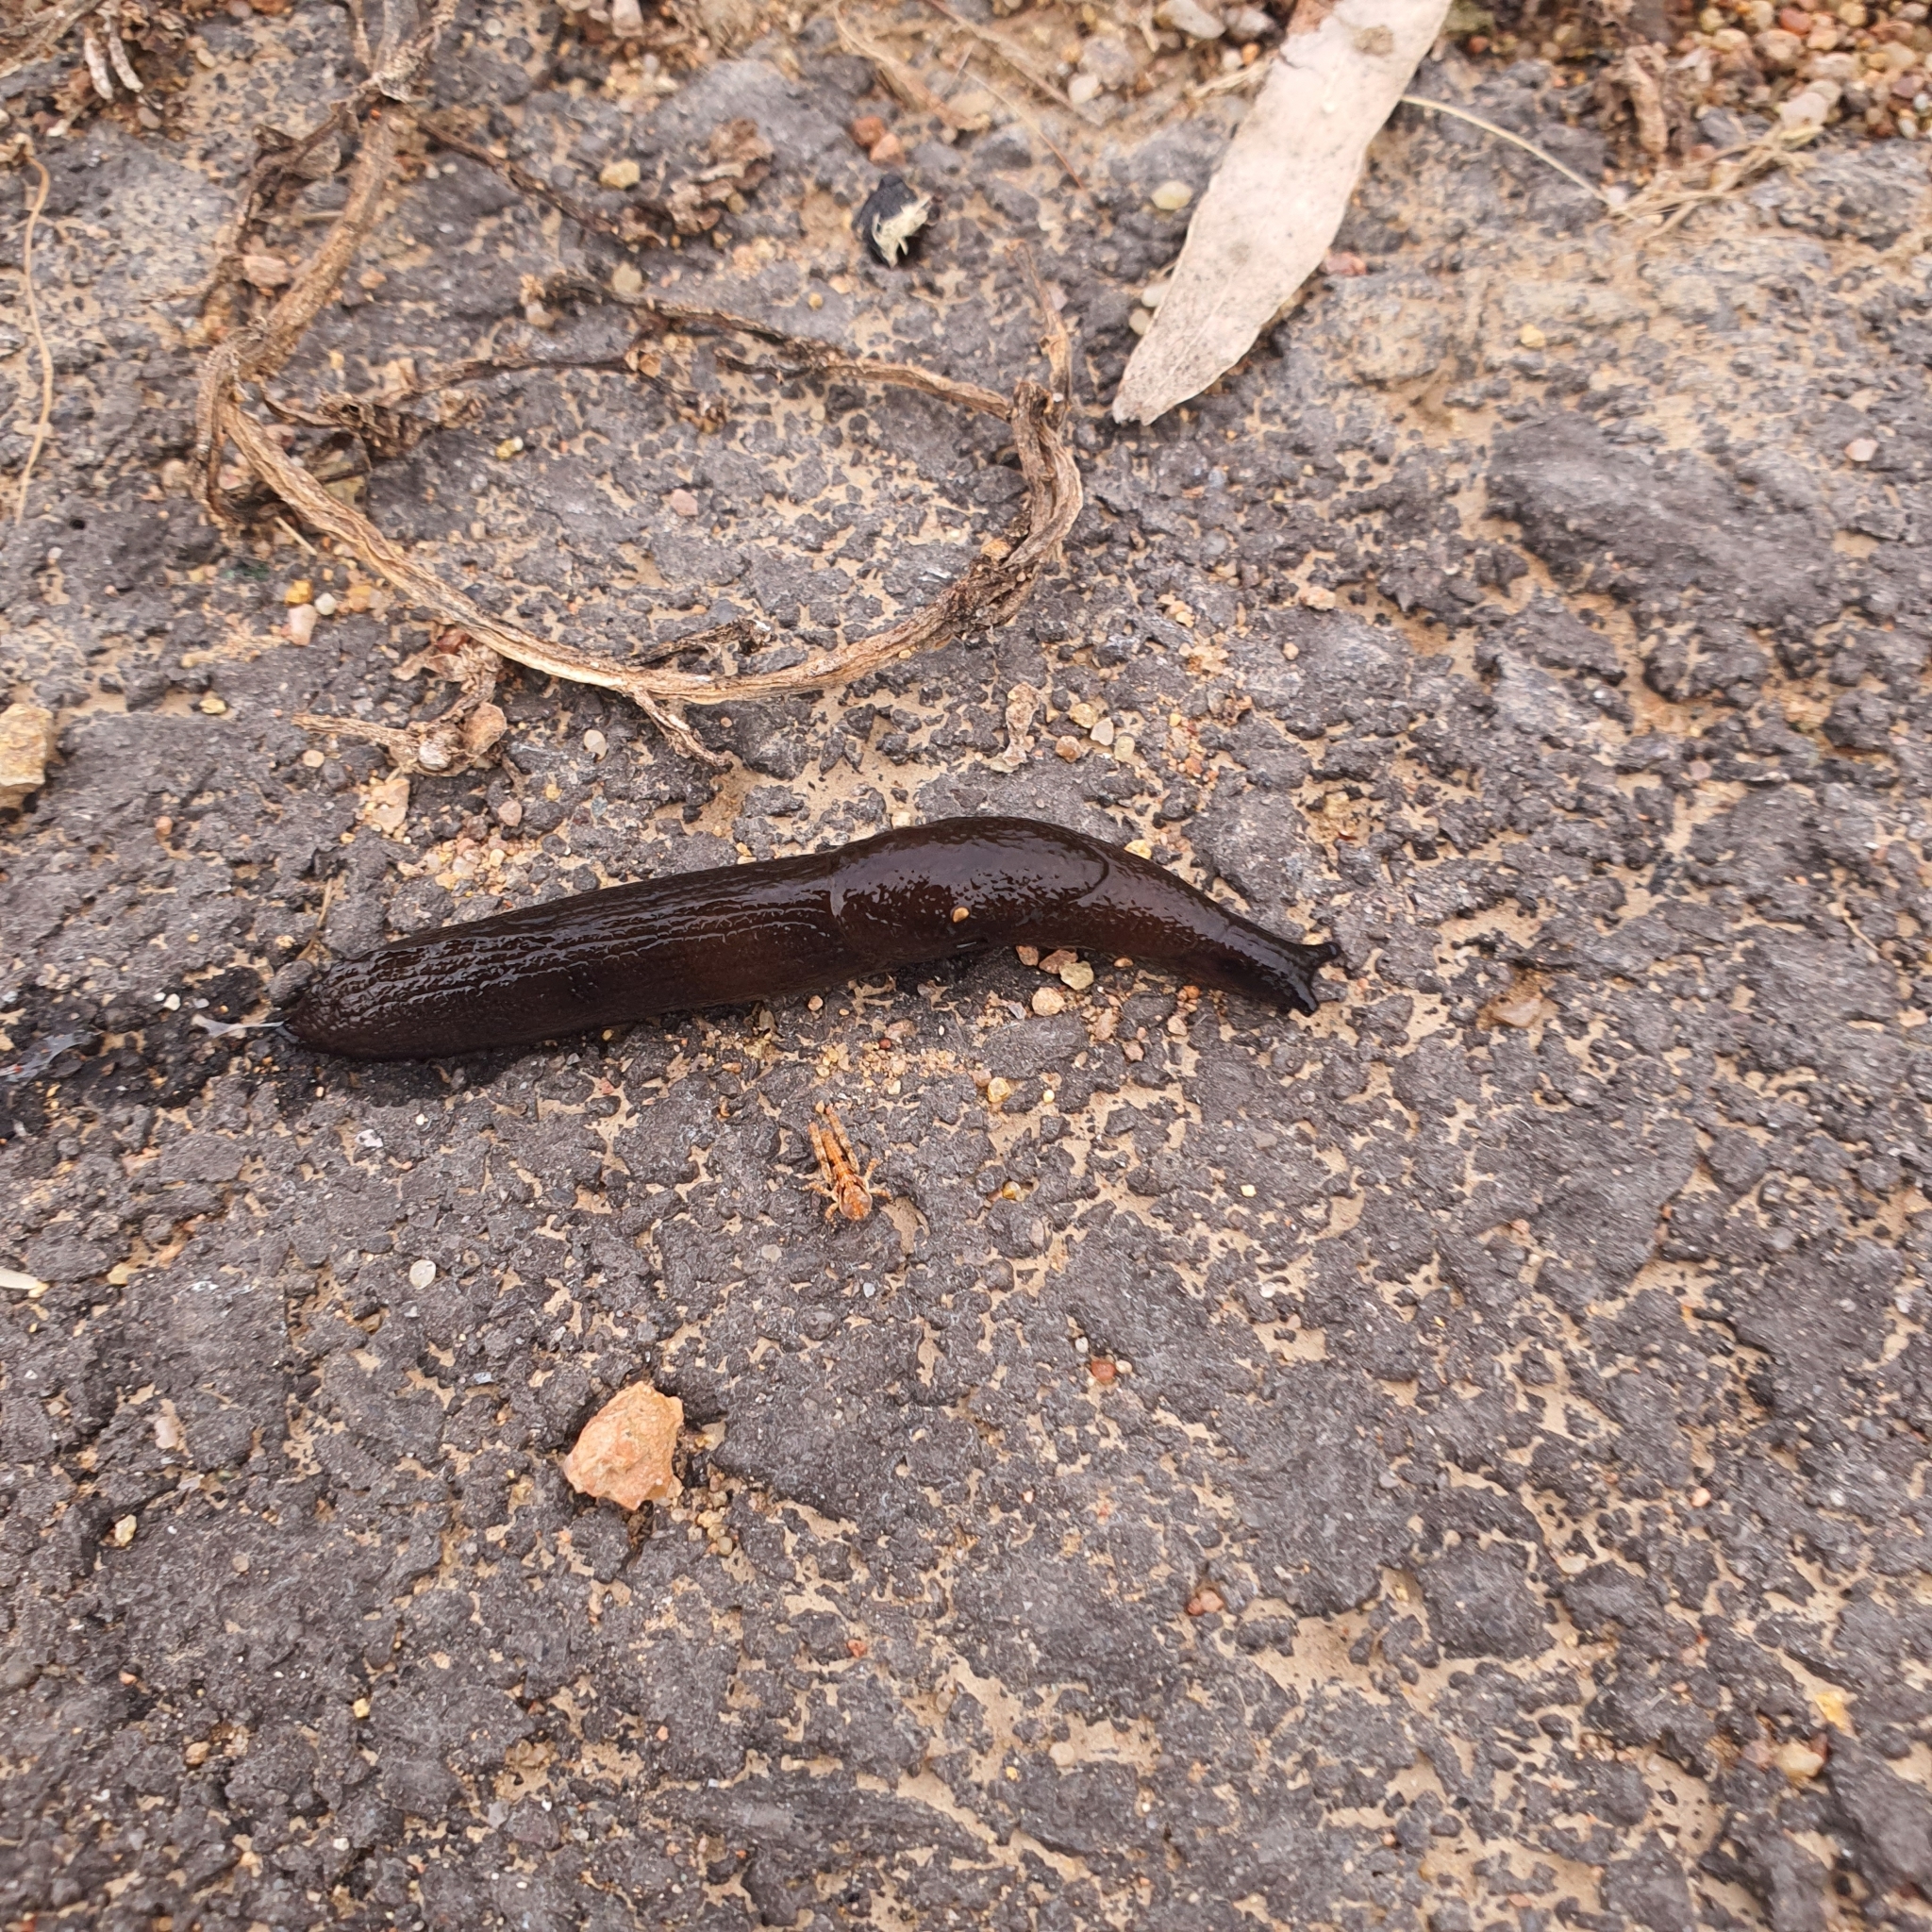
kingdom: Animalia
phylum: Mollusca
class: Gastropoda
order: Stylommatophora
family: Milacidae
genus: Milax
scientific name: Milax gagates
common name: Greenhouse slug
